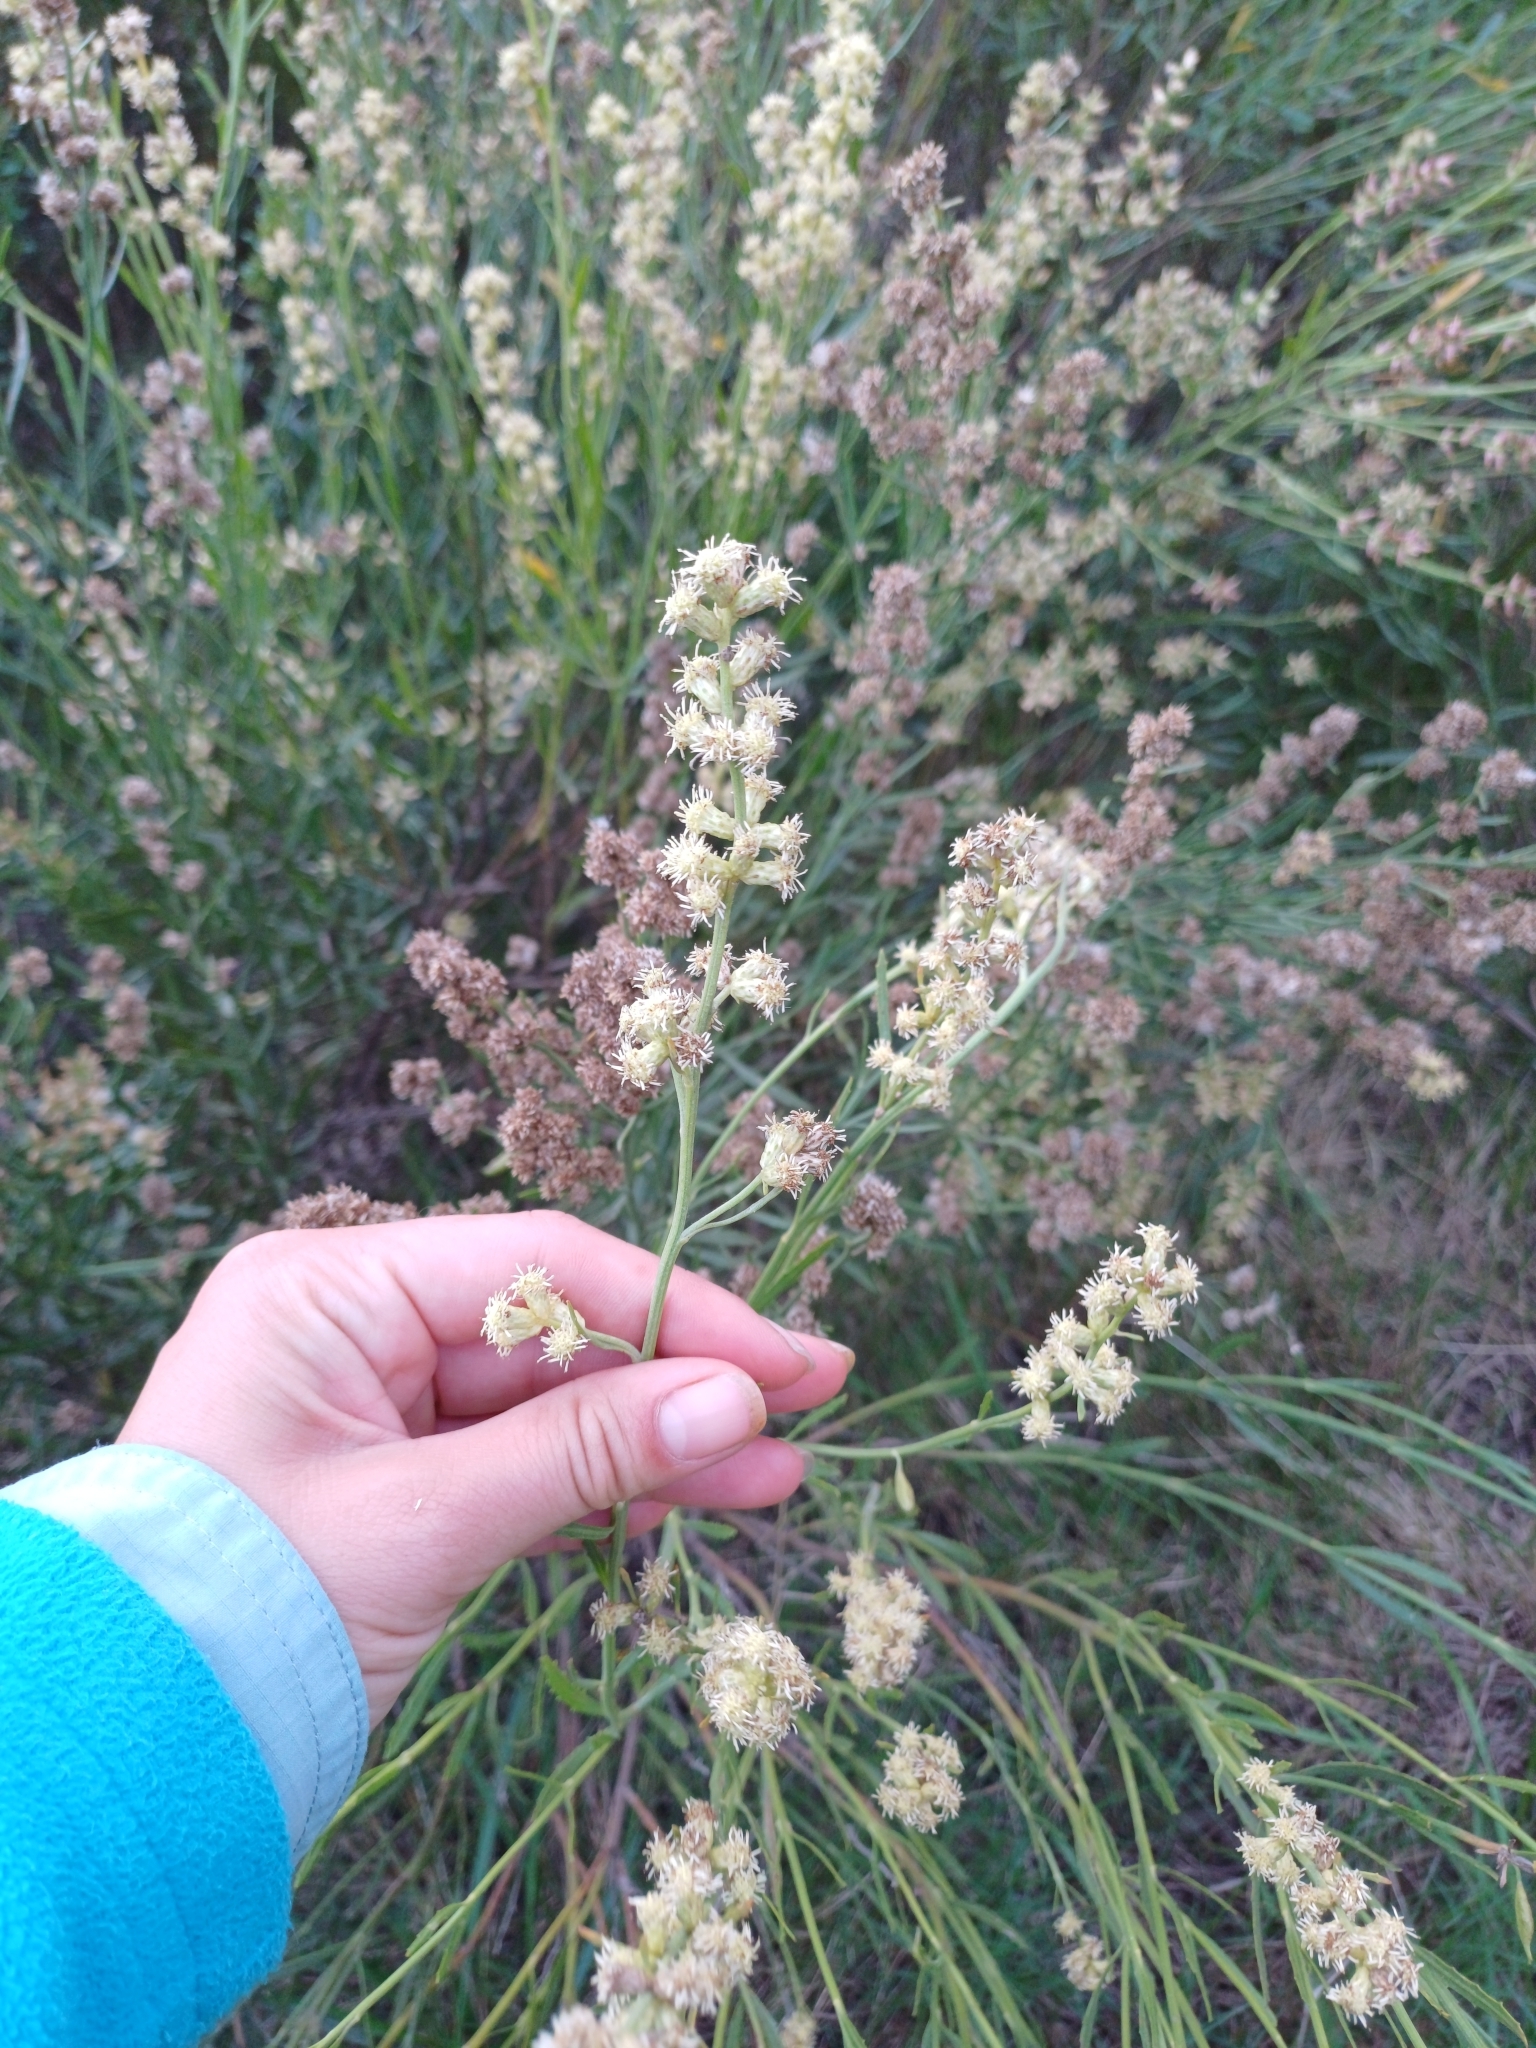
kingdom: Plantae
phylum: Tracheophyta
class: Magnoliopsida
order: Asterales
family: Asteraceae
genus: Baccharis
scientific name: Baccharis spicata
